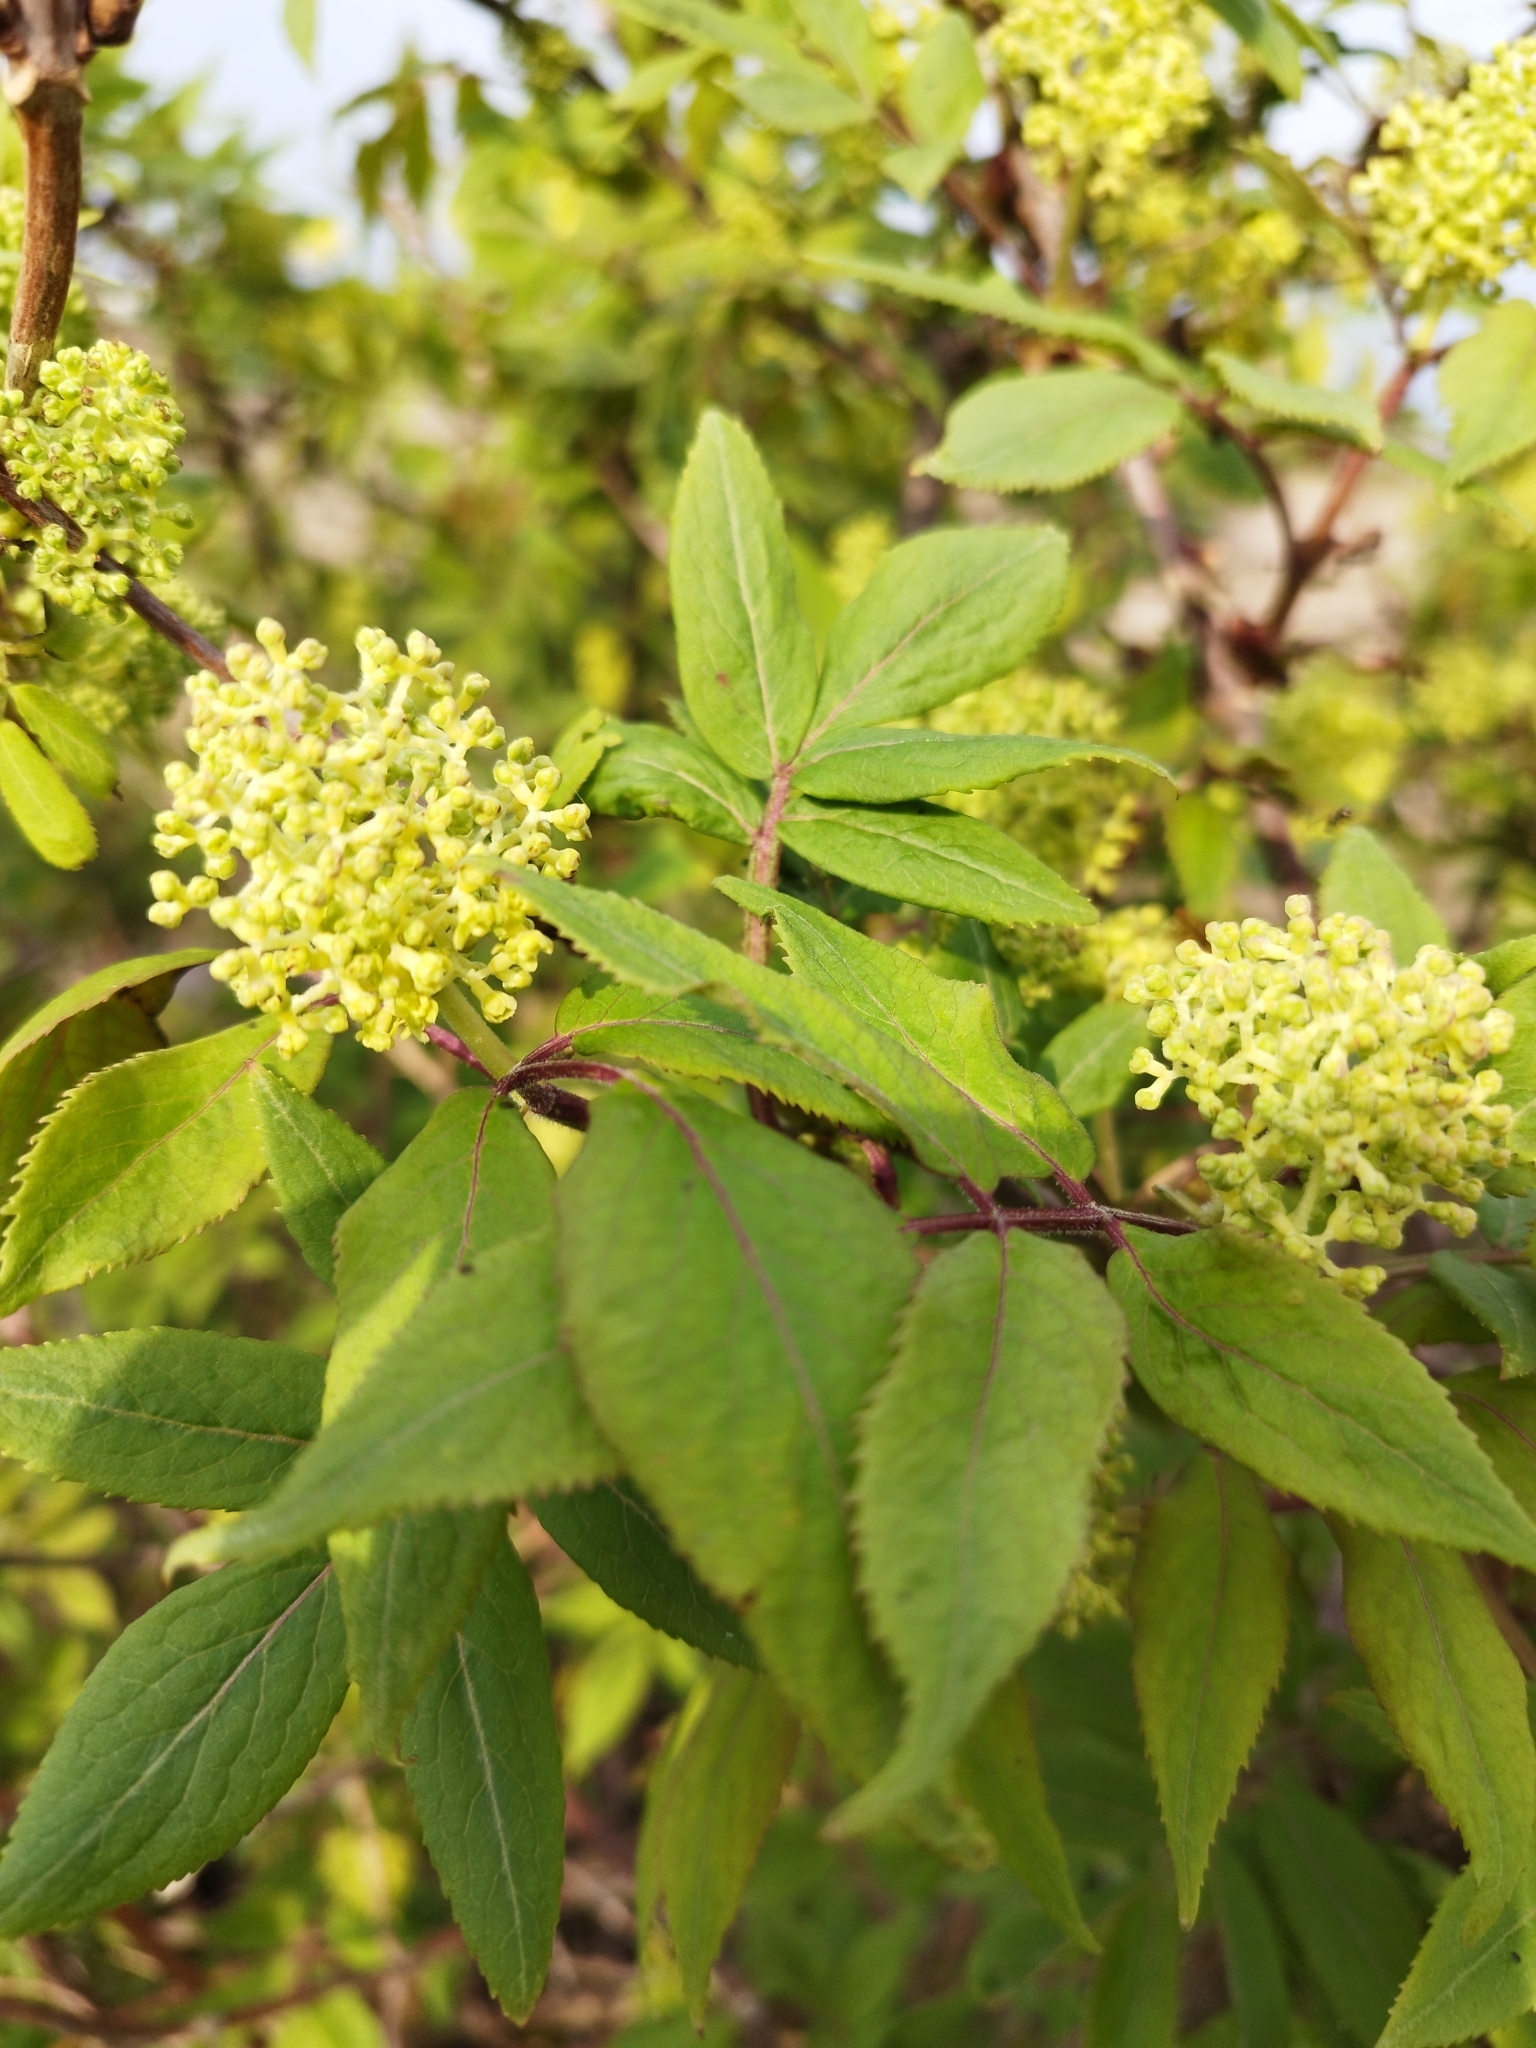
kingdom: Plantae
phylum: Tracheophyta
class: Magnoliopsida
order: Dipsacales
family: Viburnaceae
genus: Sambucus
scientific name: Sambucus racemosa
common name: Red-berried elder
